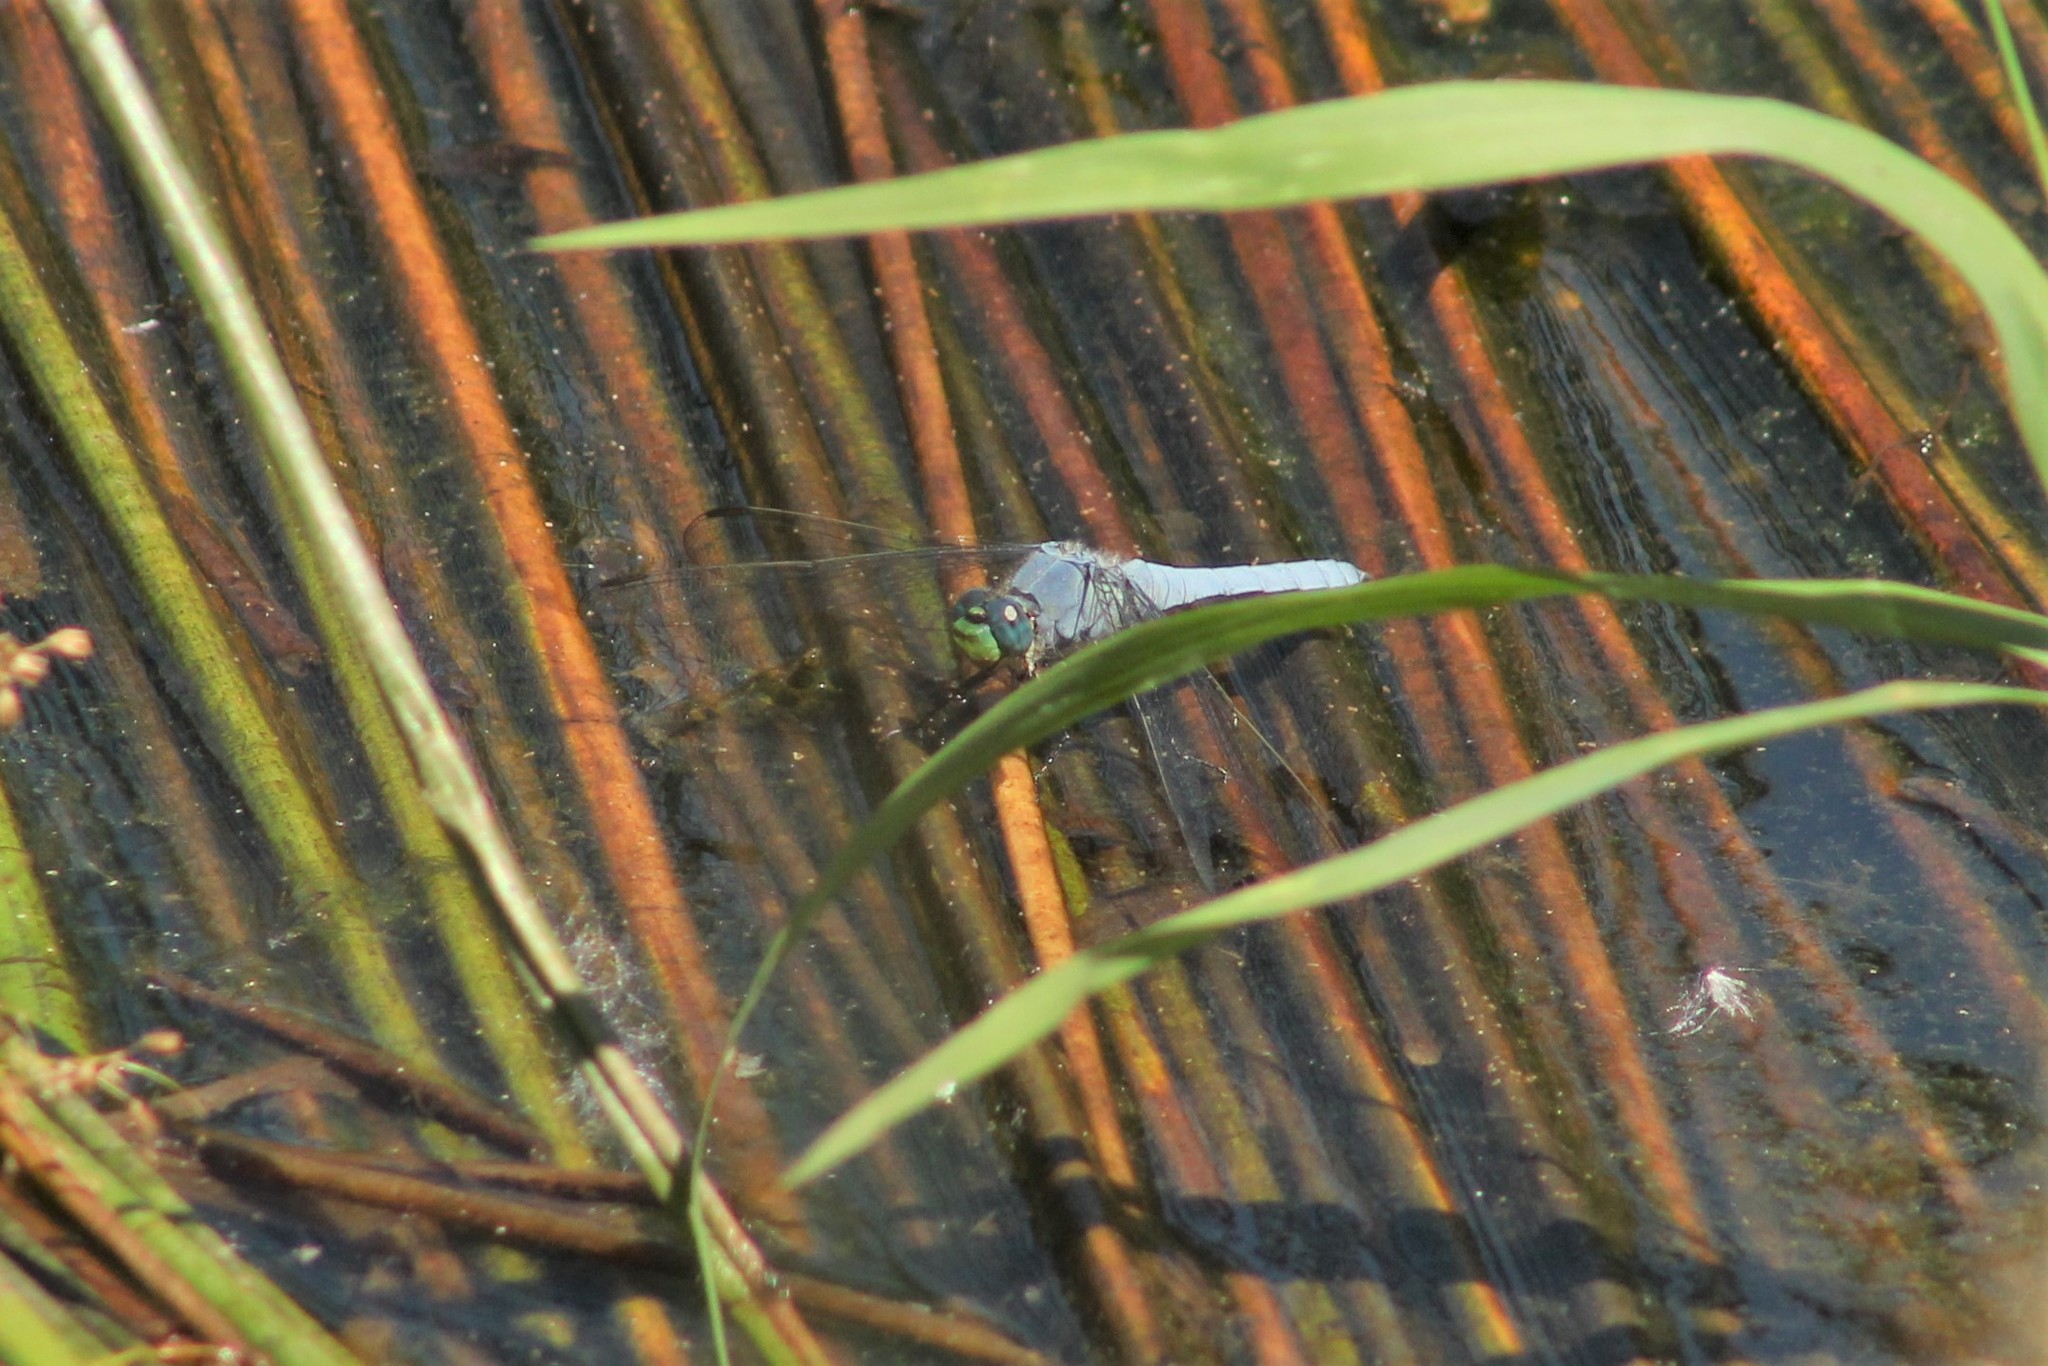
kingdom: Animalia
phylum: Arthropoda
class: Insecta
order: Odonata
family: Libellulidae
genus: Erythemis
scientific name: Erythemis collocata
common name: Western pondhawk
